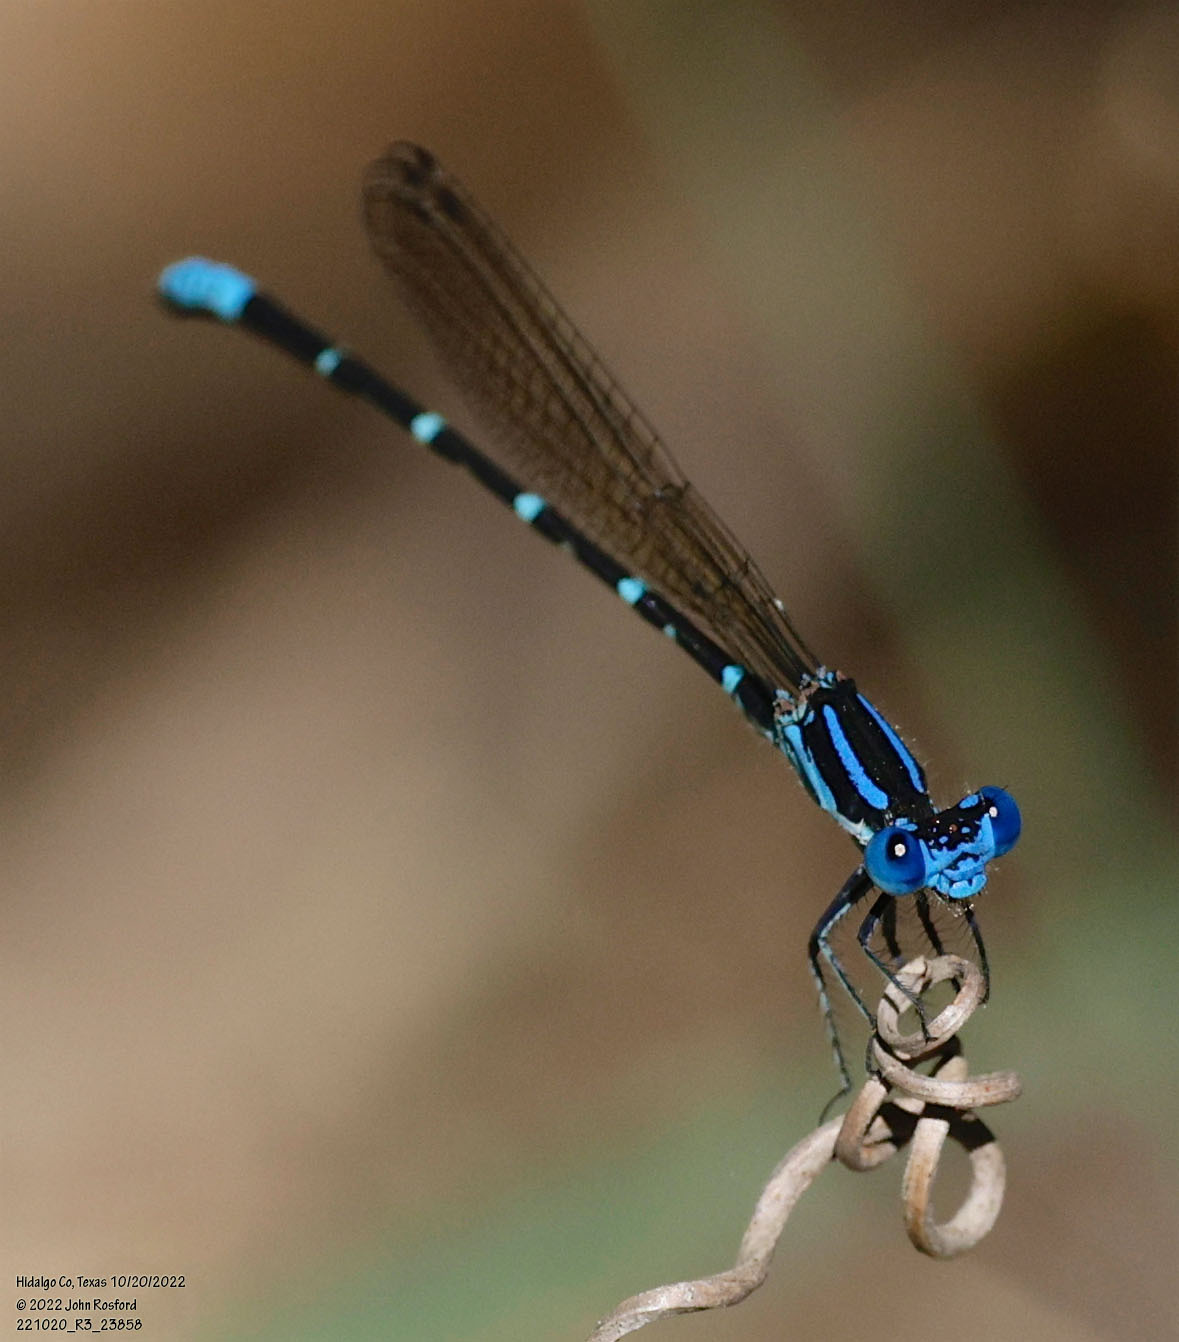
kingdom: Animalia
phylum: Arthropoda
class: Insecta
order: Odonata
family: Coenagrionidae
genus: Argia
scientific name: Argia sedula
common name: Blue-ringed dancer
